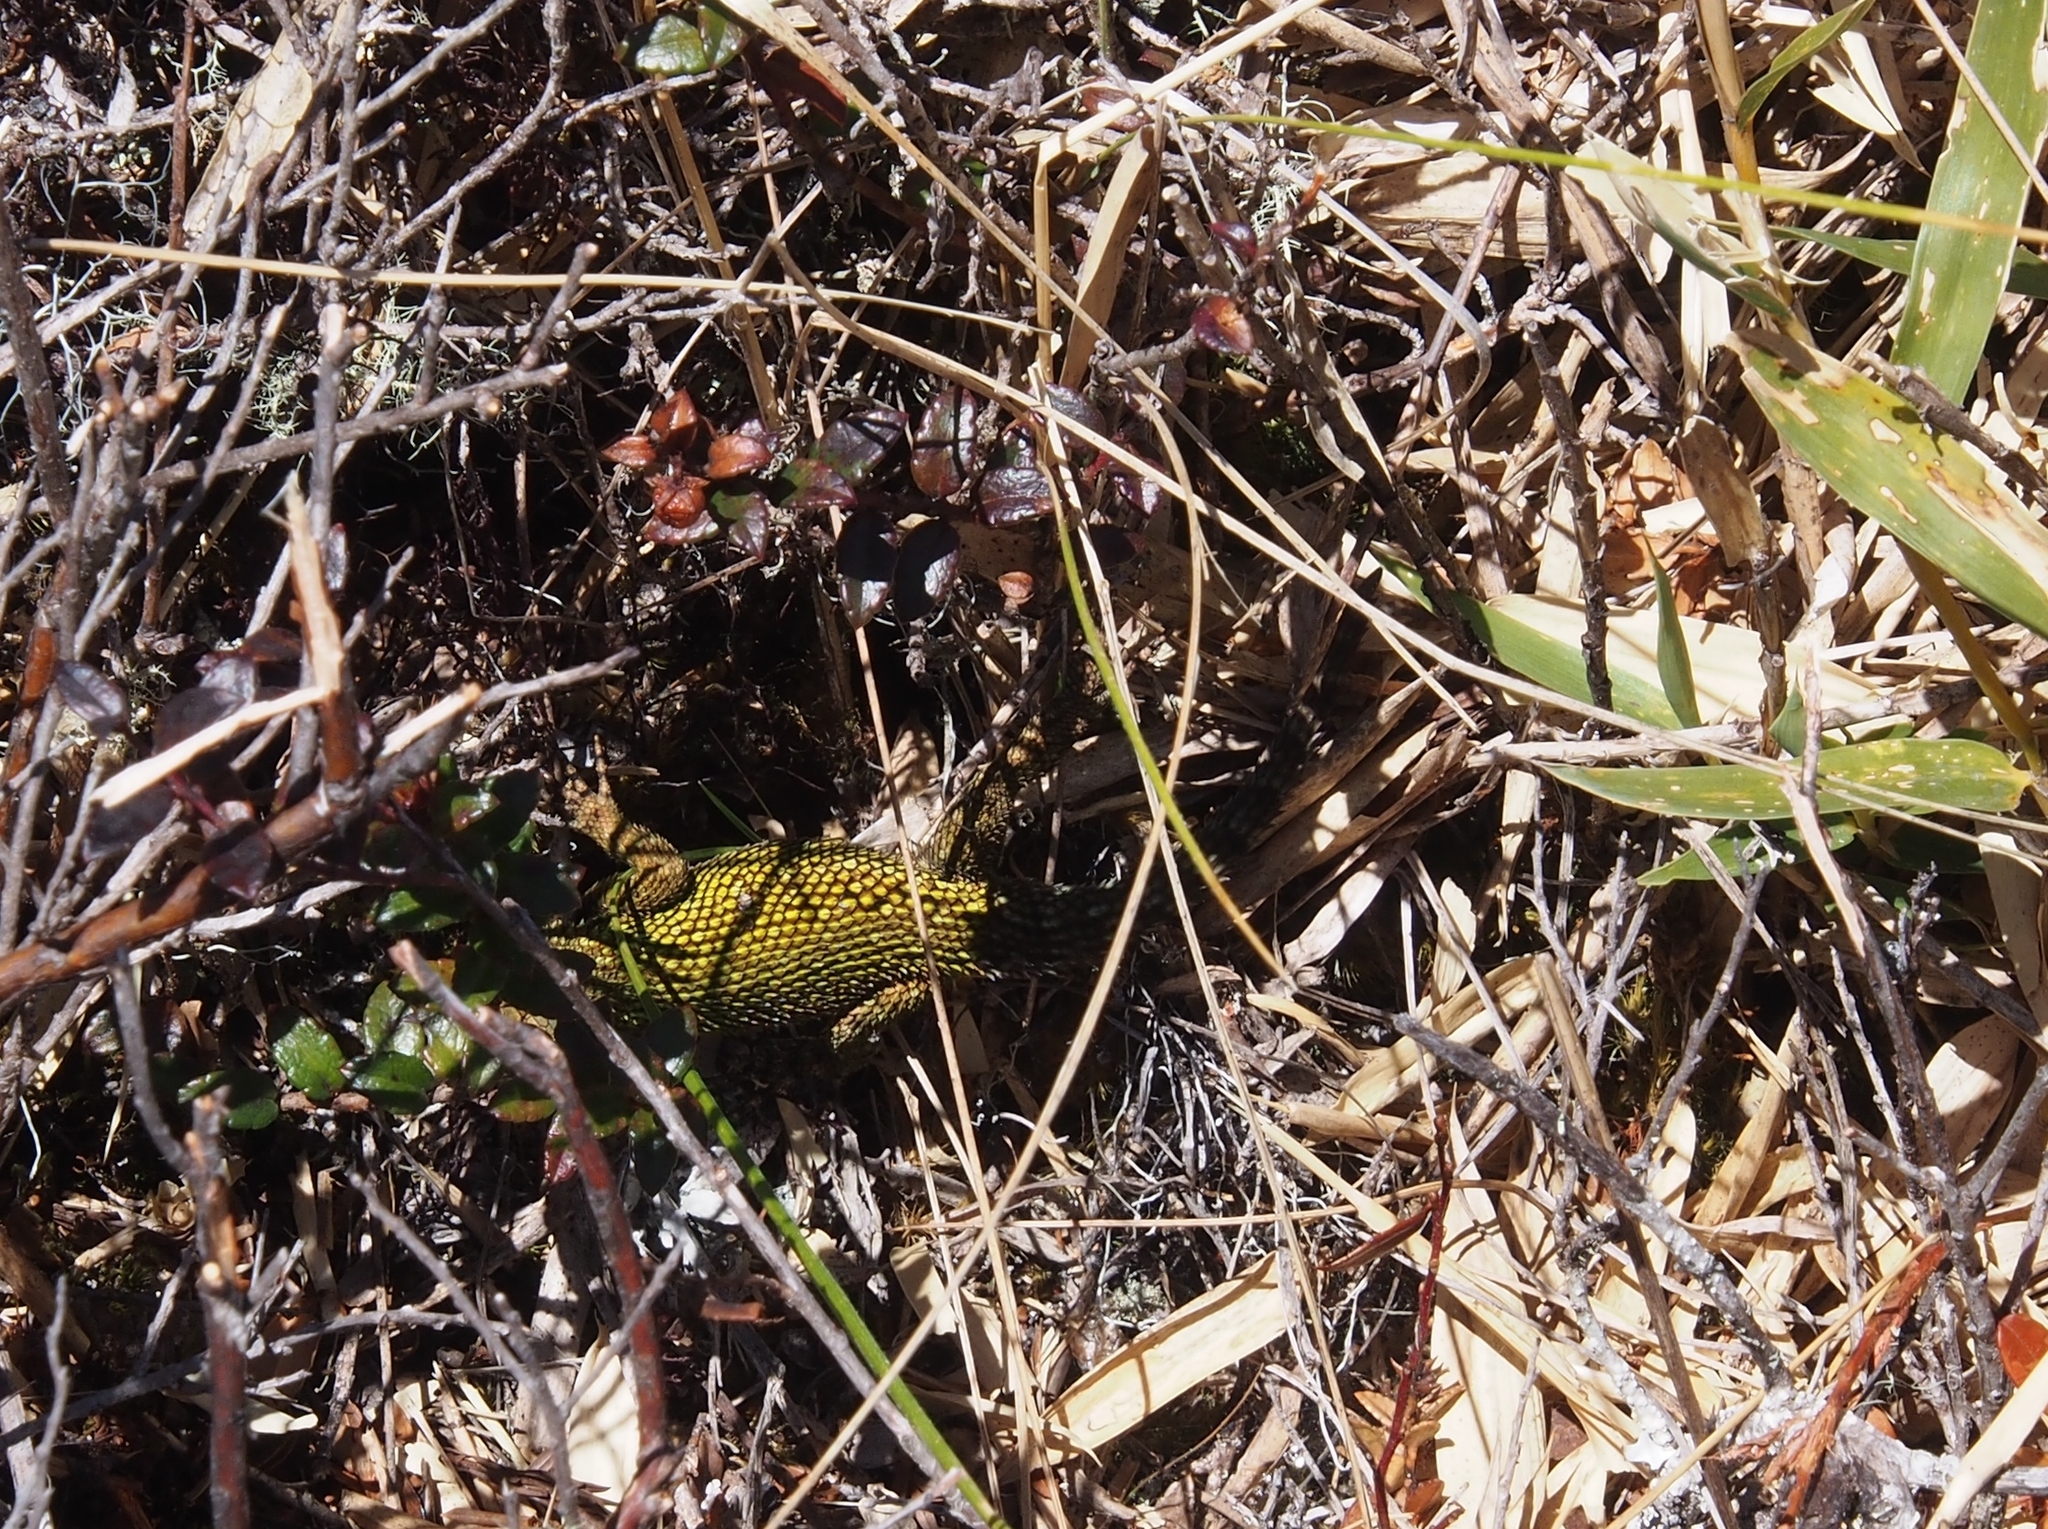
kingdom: Animalia
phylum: Chordata
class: Squamata
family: Phrynosomatidae
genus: Sceloporus
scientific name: Sceloporus malachiticus
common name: Green spiny lizard
